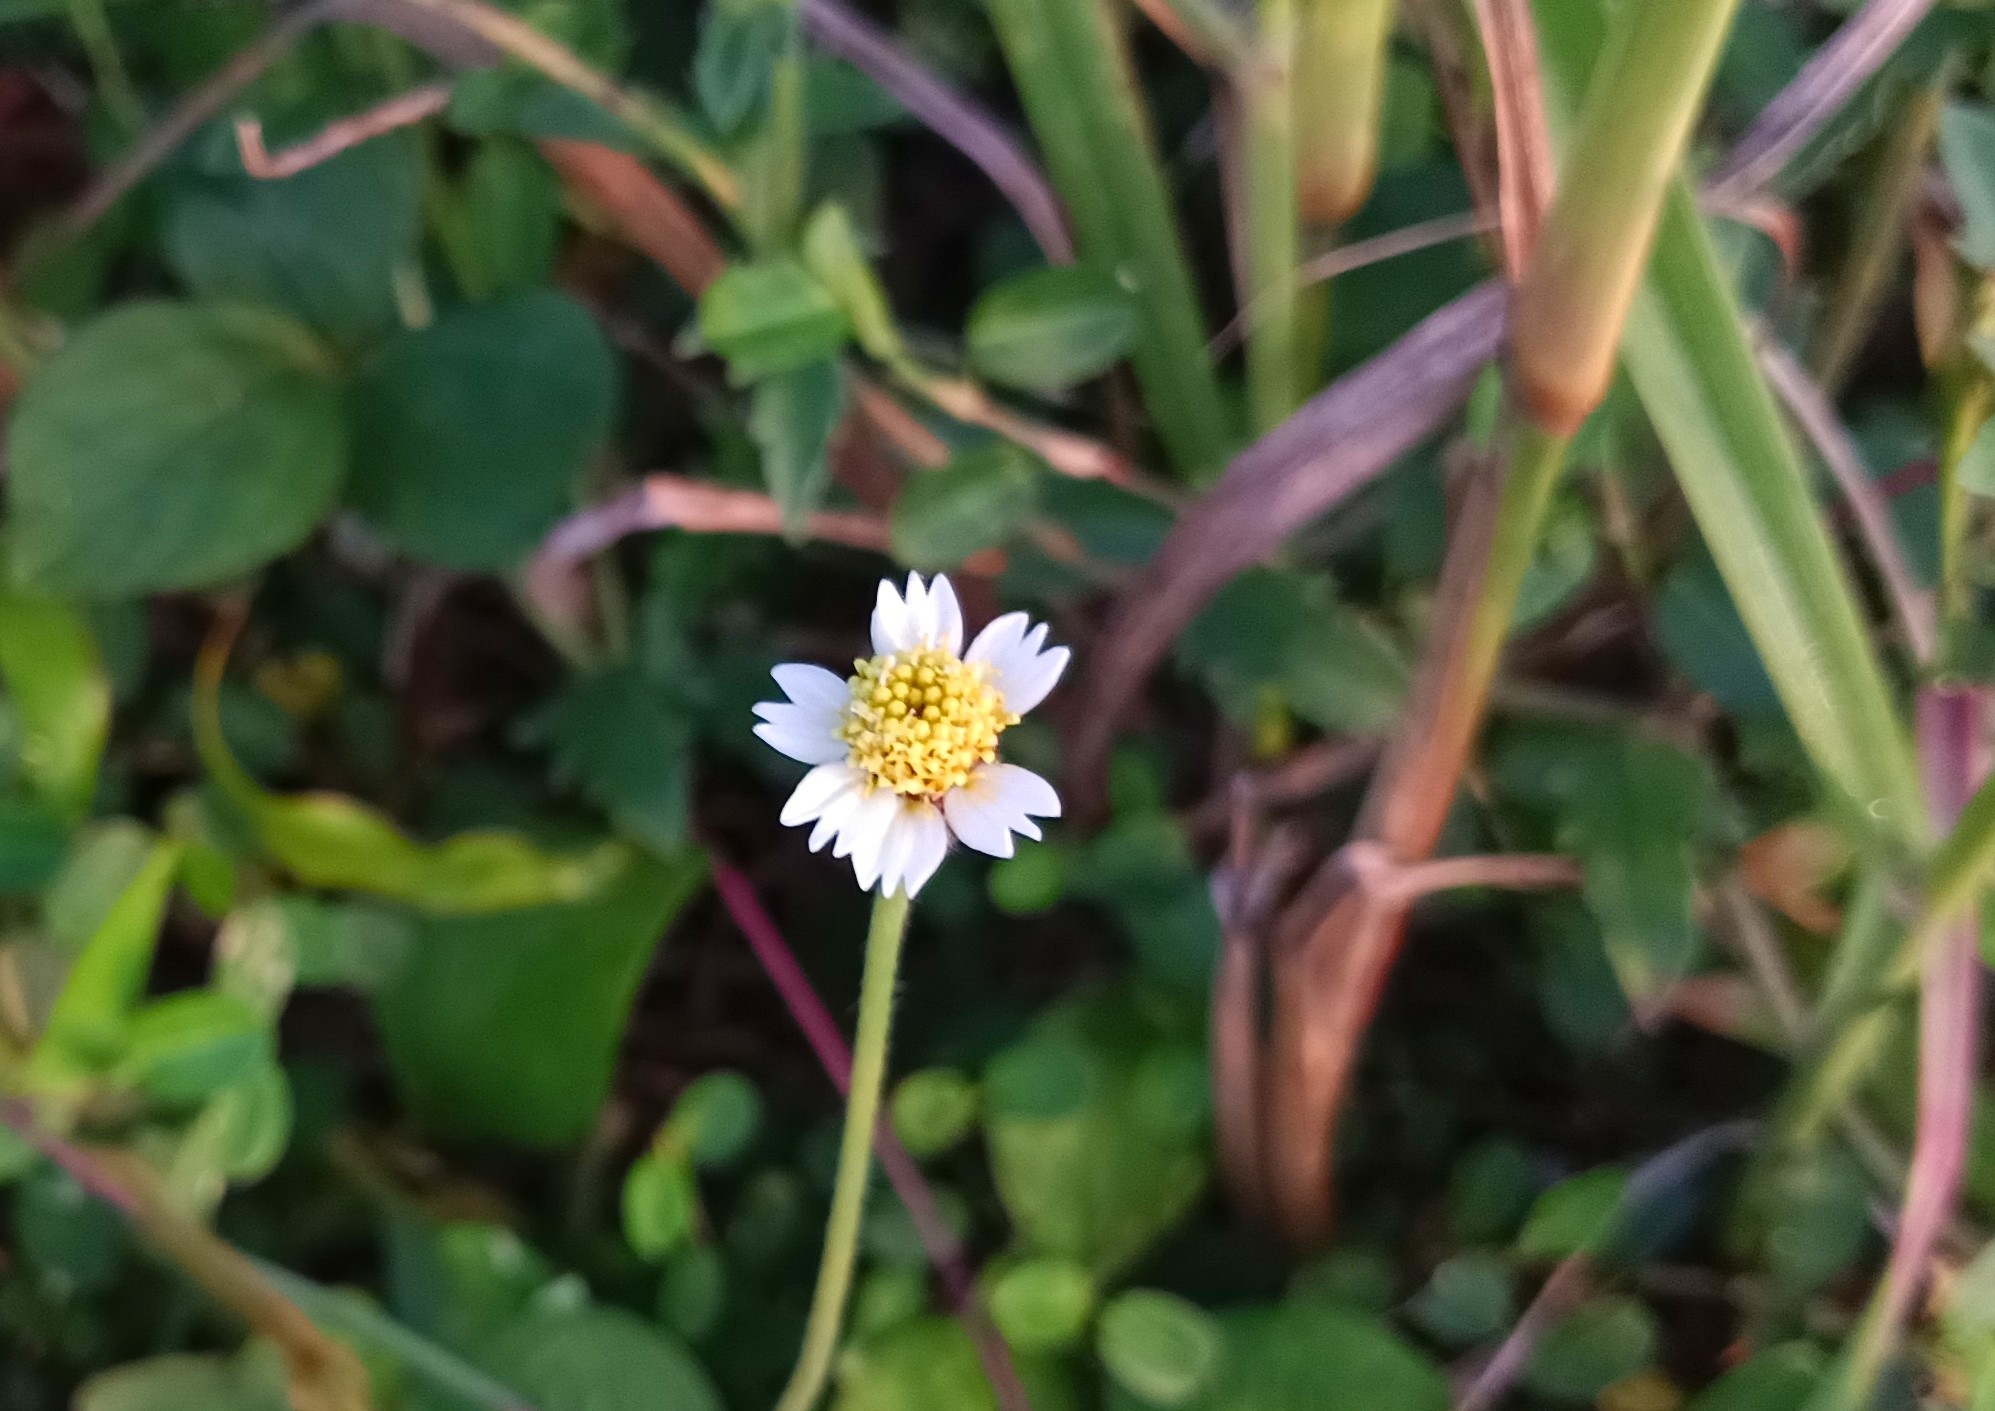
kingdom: Plantae
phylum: Tracheophyta
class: Magnoliopsida
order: Asterales
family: Asteraceae
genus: Tridax
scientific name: Tridax procumbens
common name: Coatbuttons
